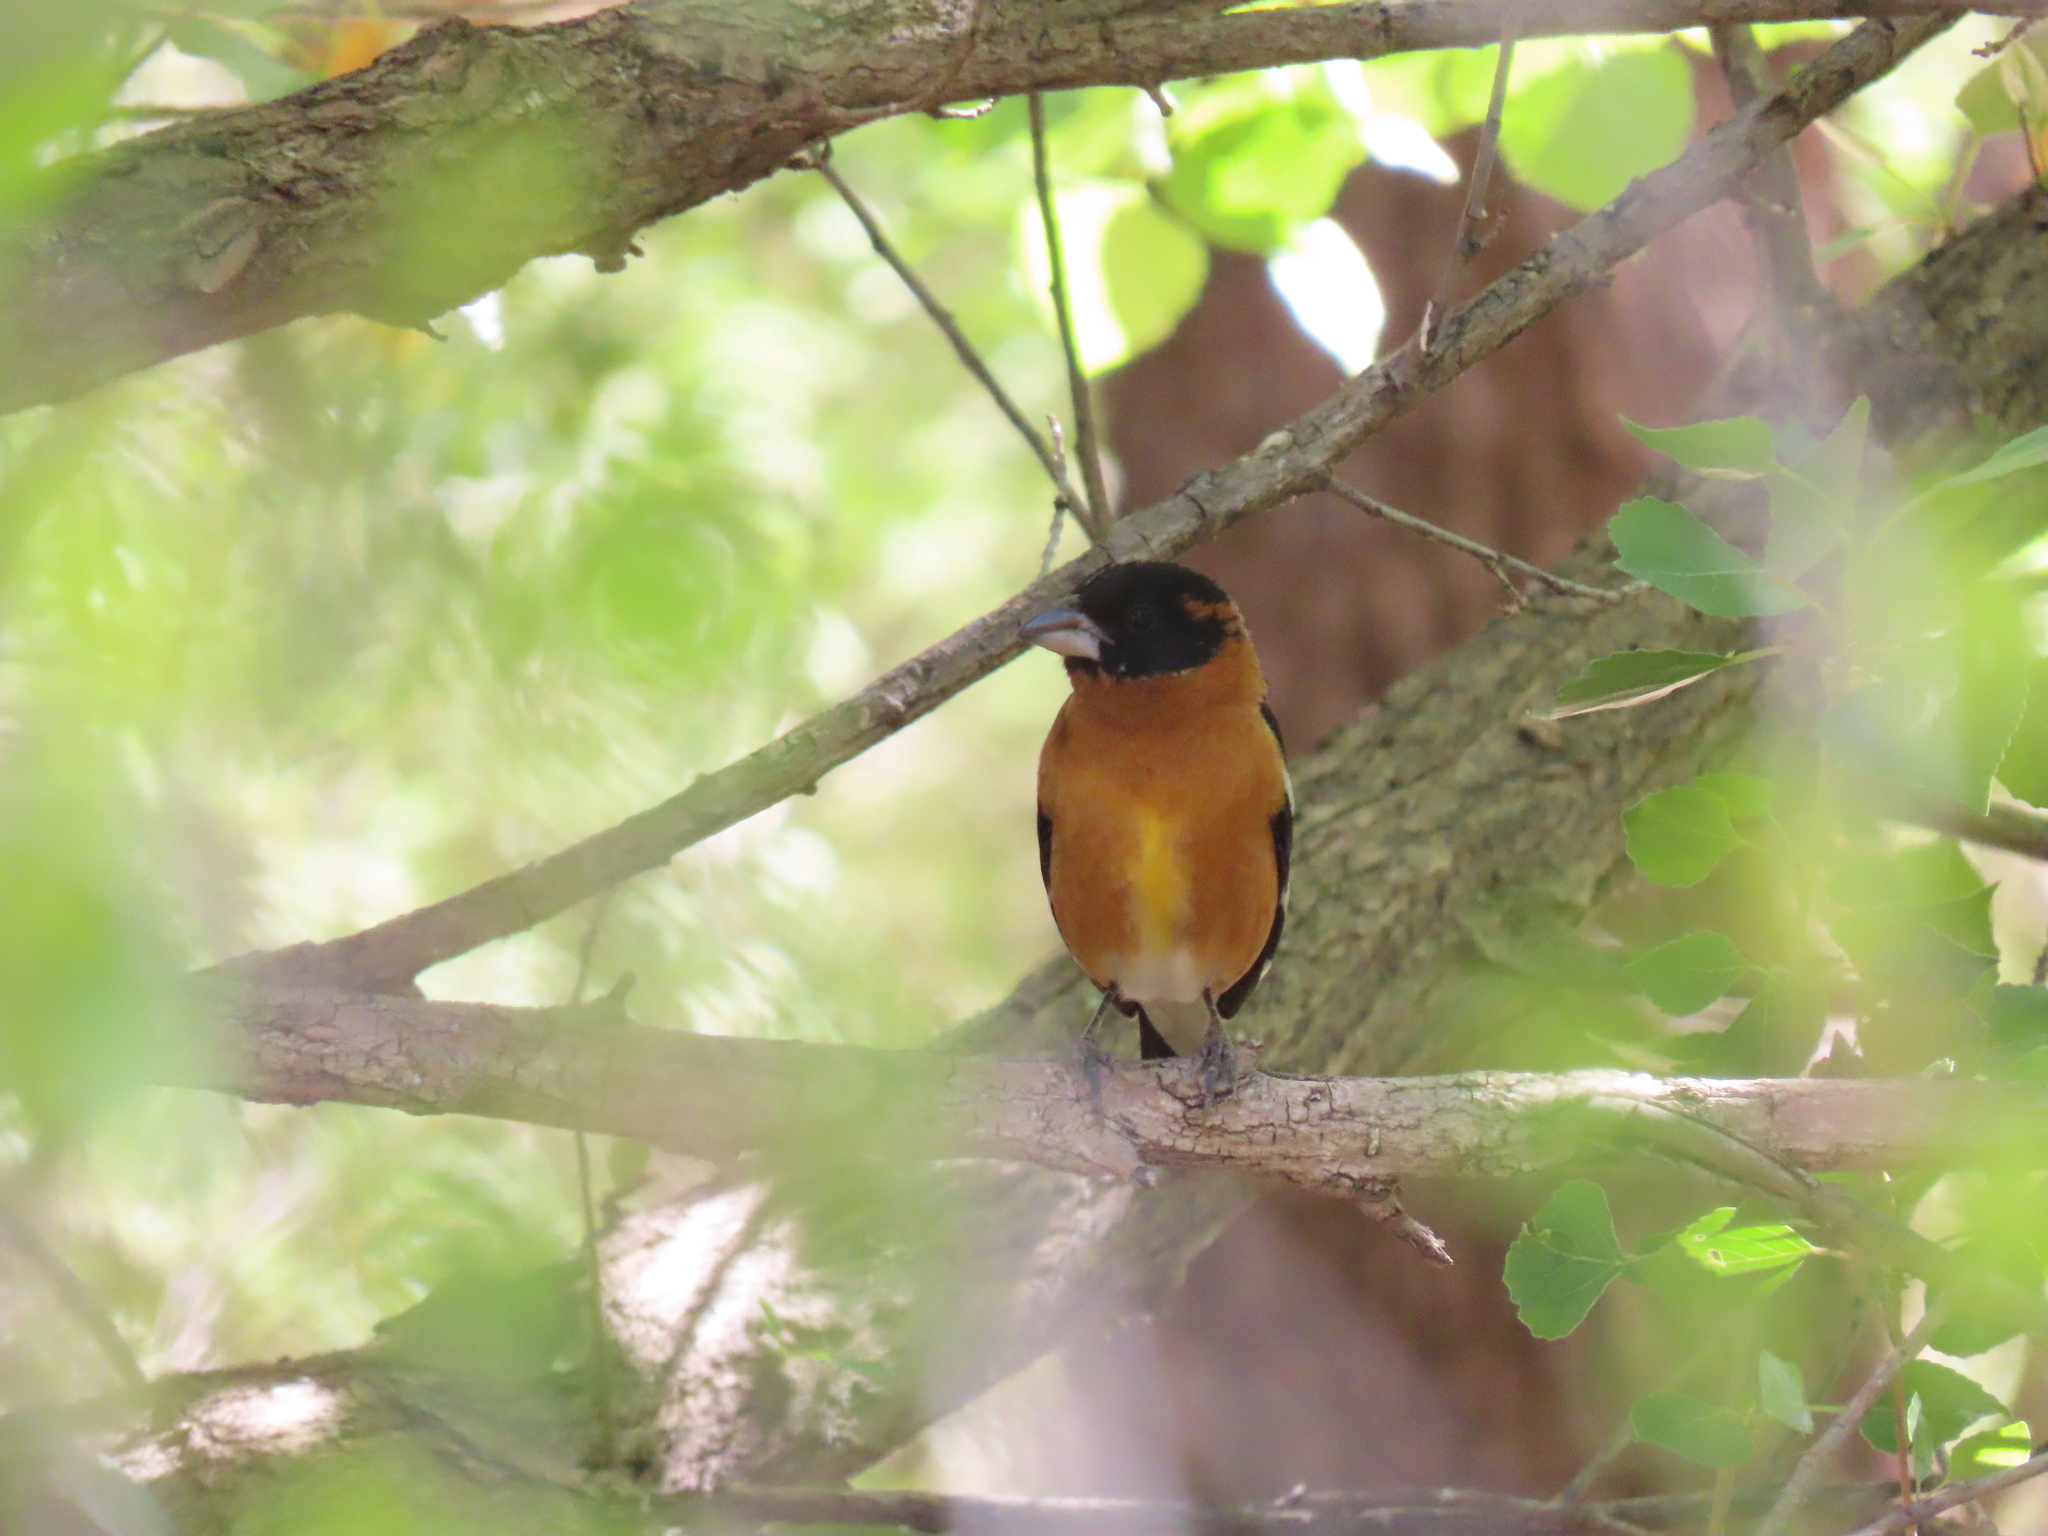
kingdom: Animalia
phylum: Chordata
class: Aves
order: Passeriformes
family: Cardinalidae
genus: Pheucticus
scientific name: Pheucticus melanocephalus
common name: Black-headed grosbeak
